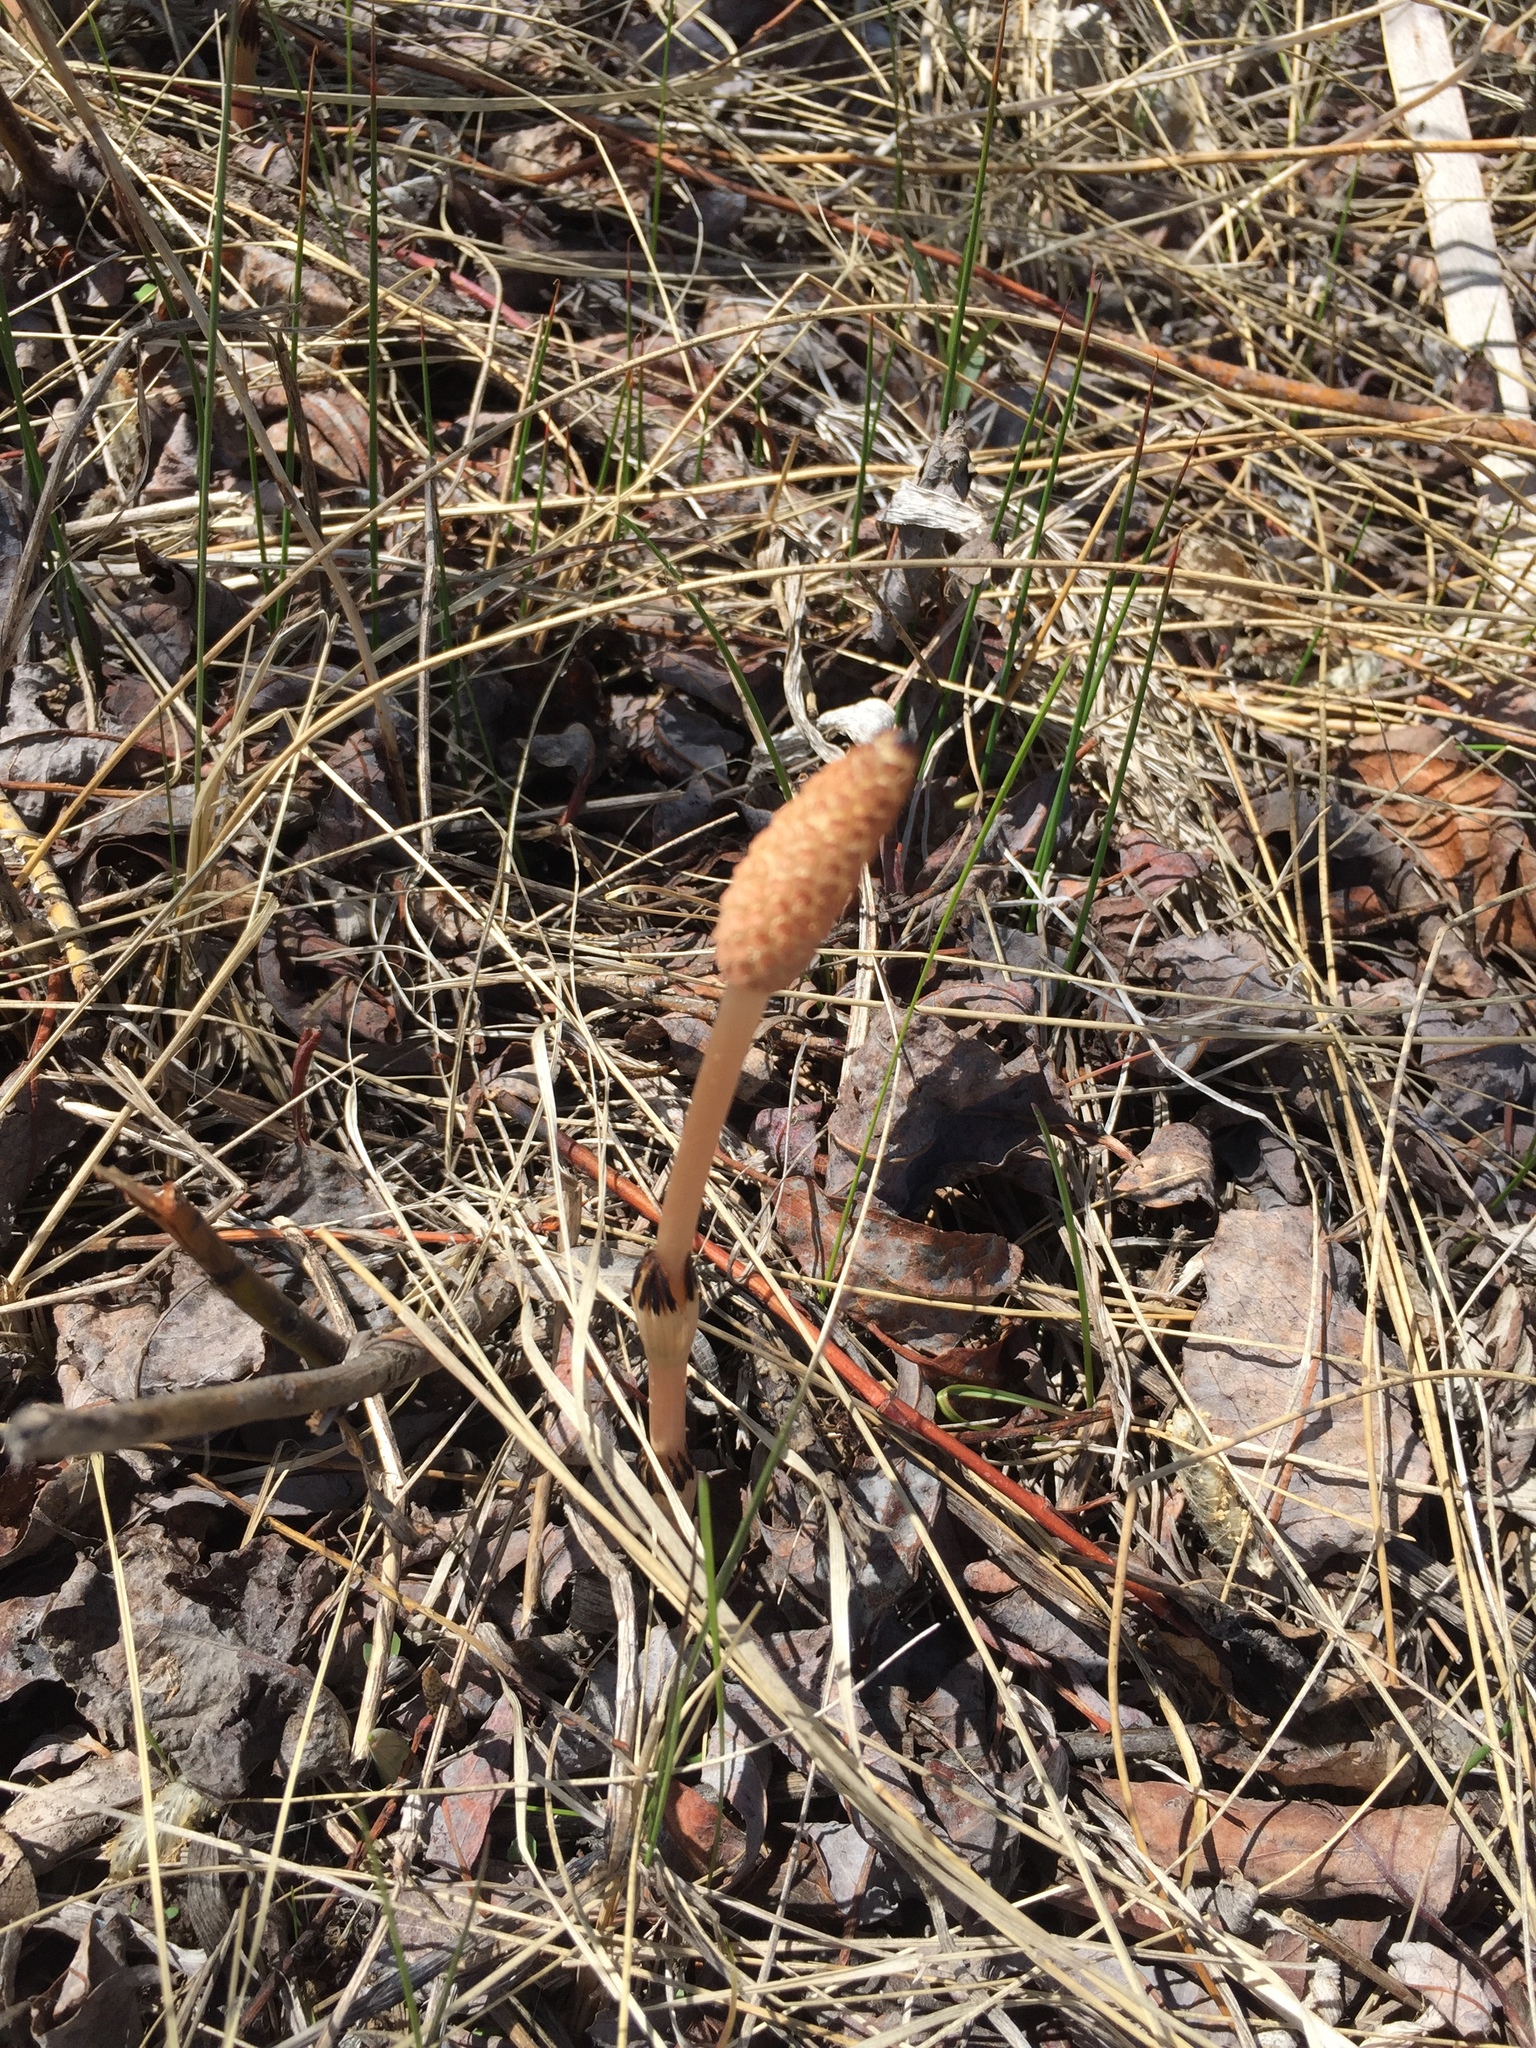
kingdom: Plantae
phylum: Tracheophyta
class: Polypodiopsida
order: Equisetales
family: Equisetaceae
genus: Equisetum
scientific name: Equisetum arvense
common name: Field horsetail
